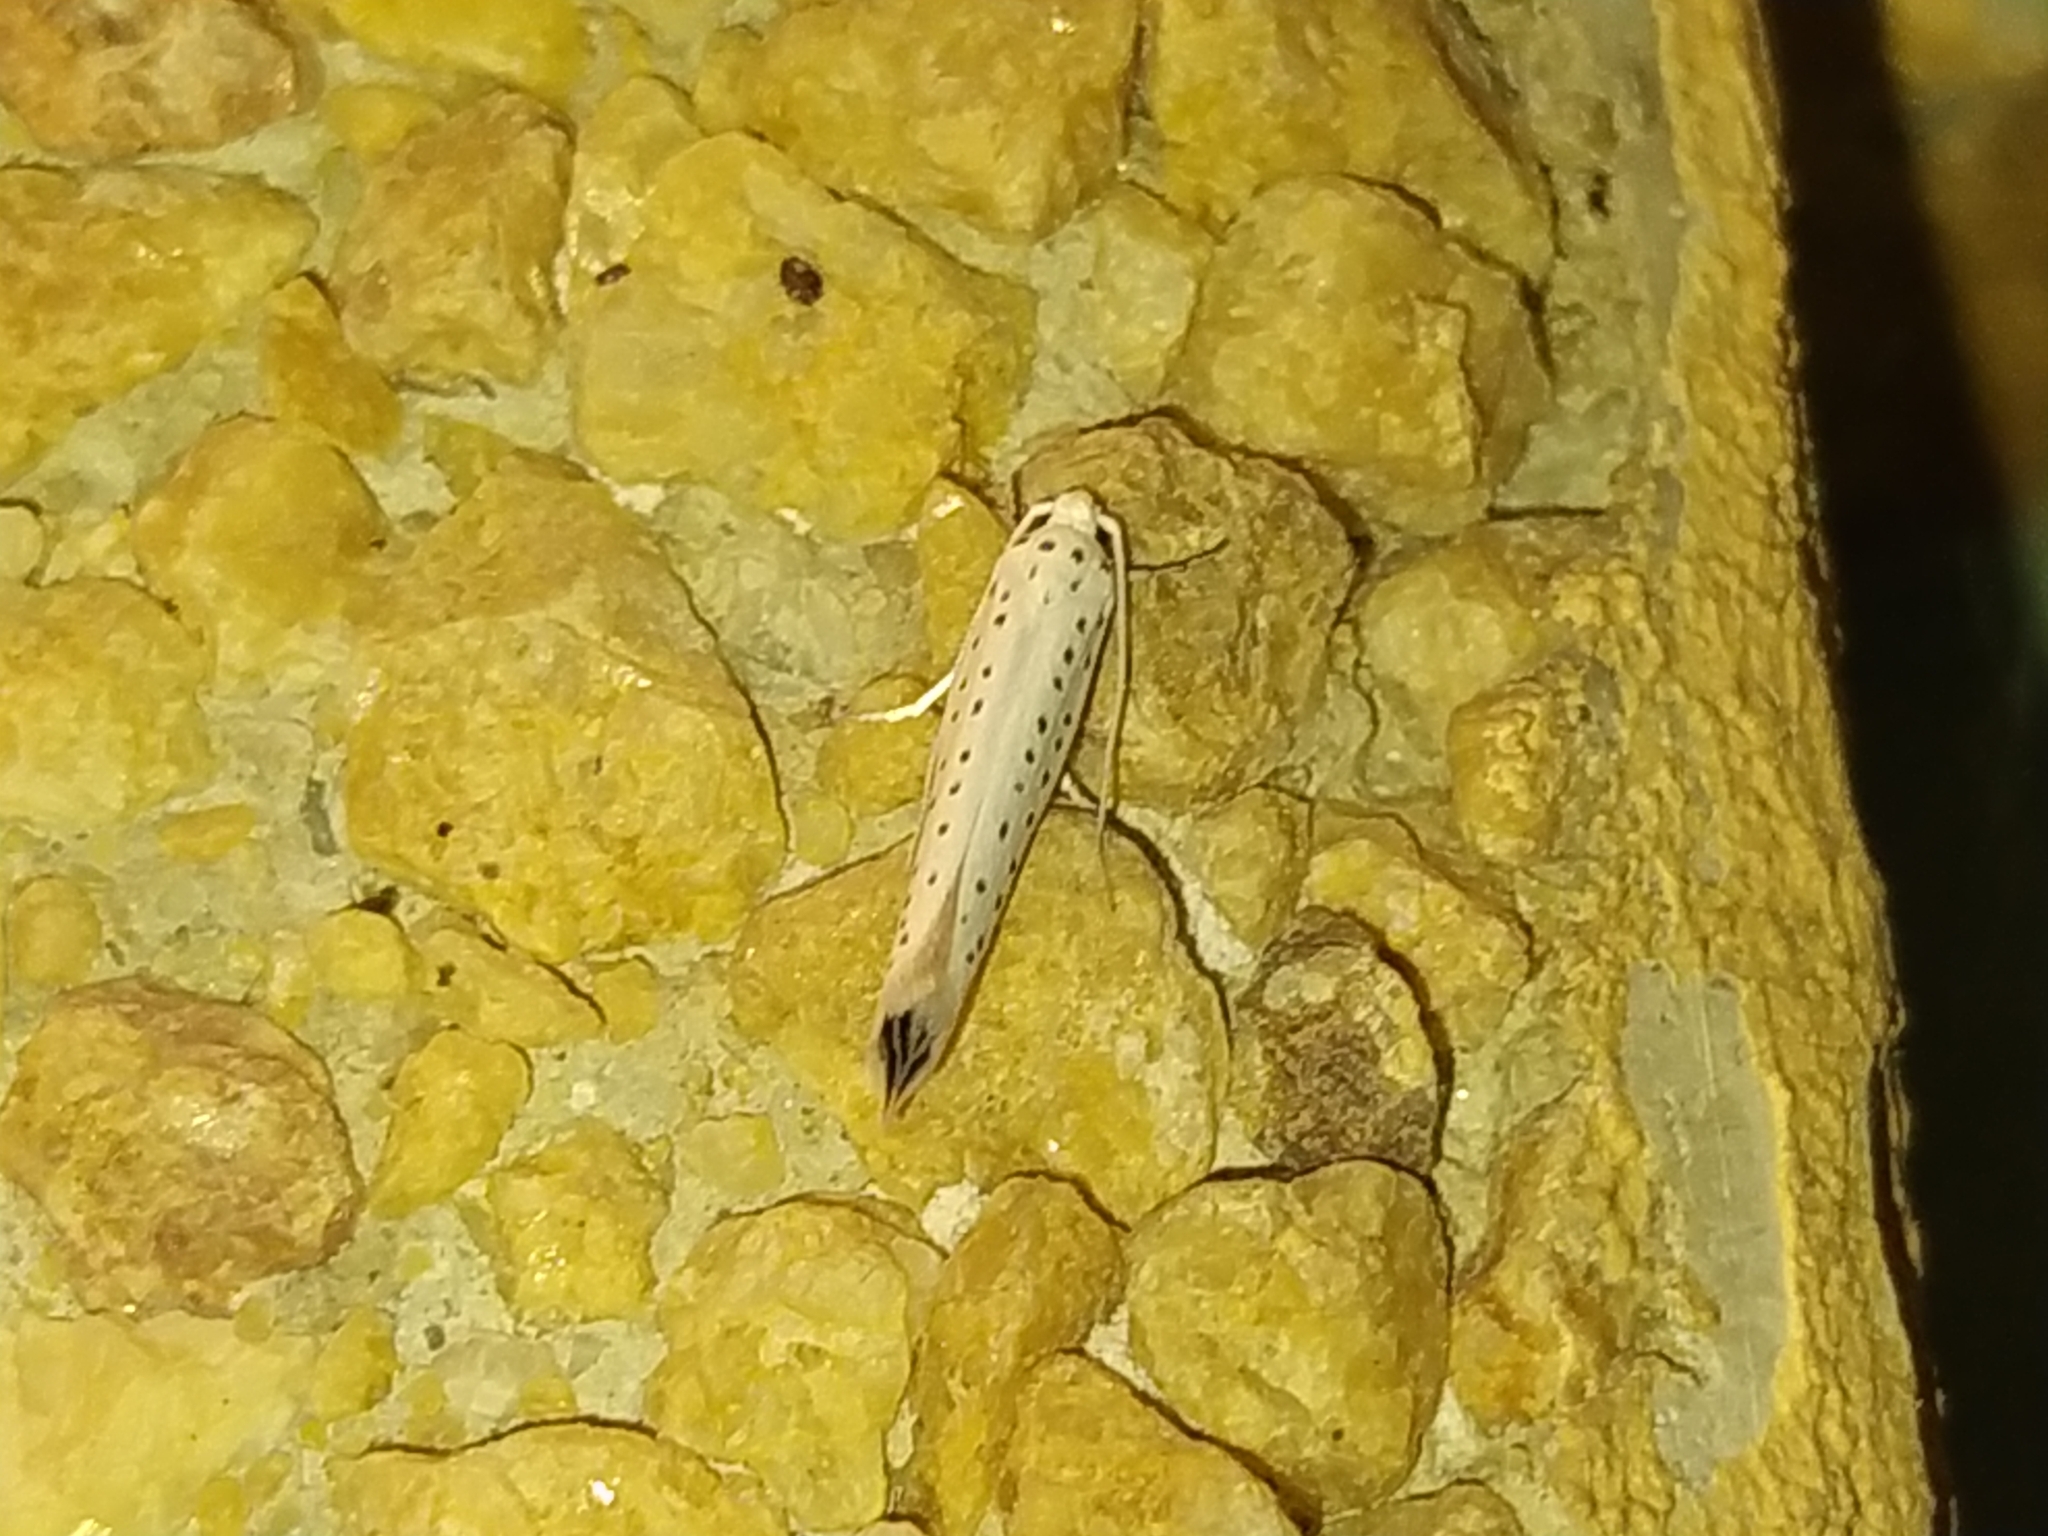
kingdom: Animalia
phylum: Arthropoda
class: Insecta
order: Lepidoptera
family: Yponomeutidae
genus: Yponomeuta
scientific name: Yponomeuta evonymella
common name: Bird-cherry ermine
